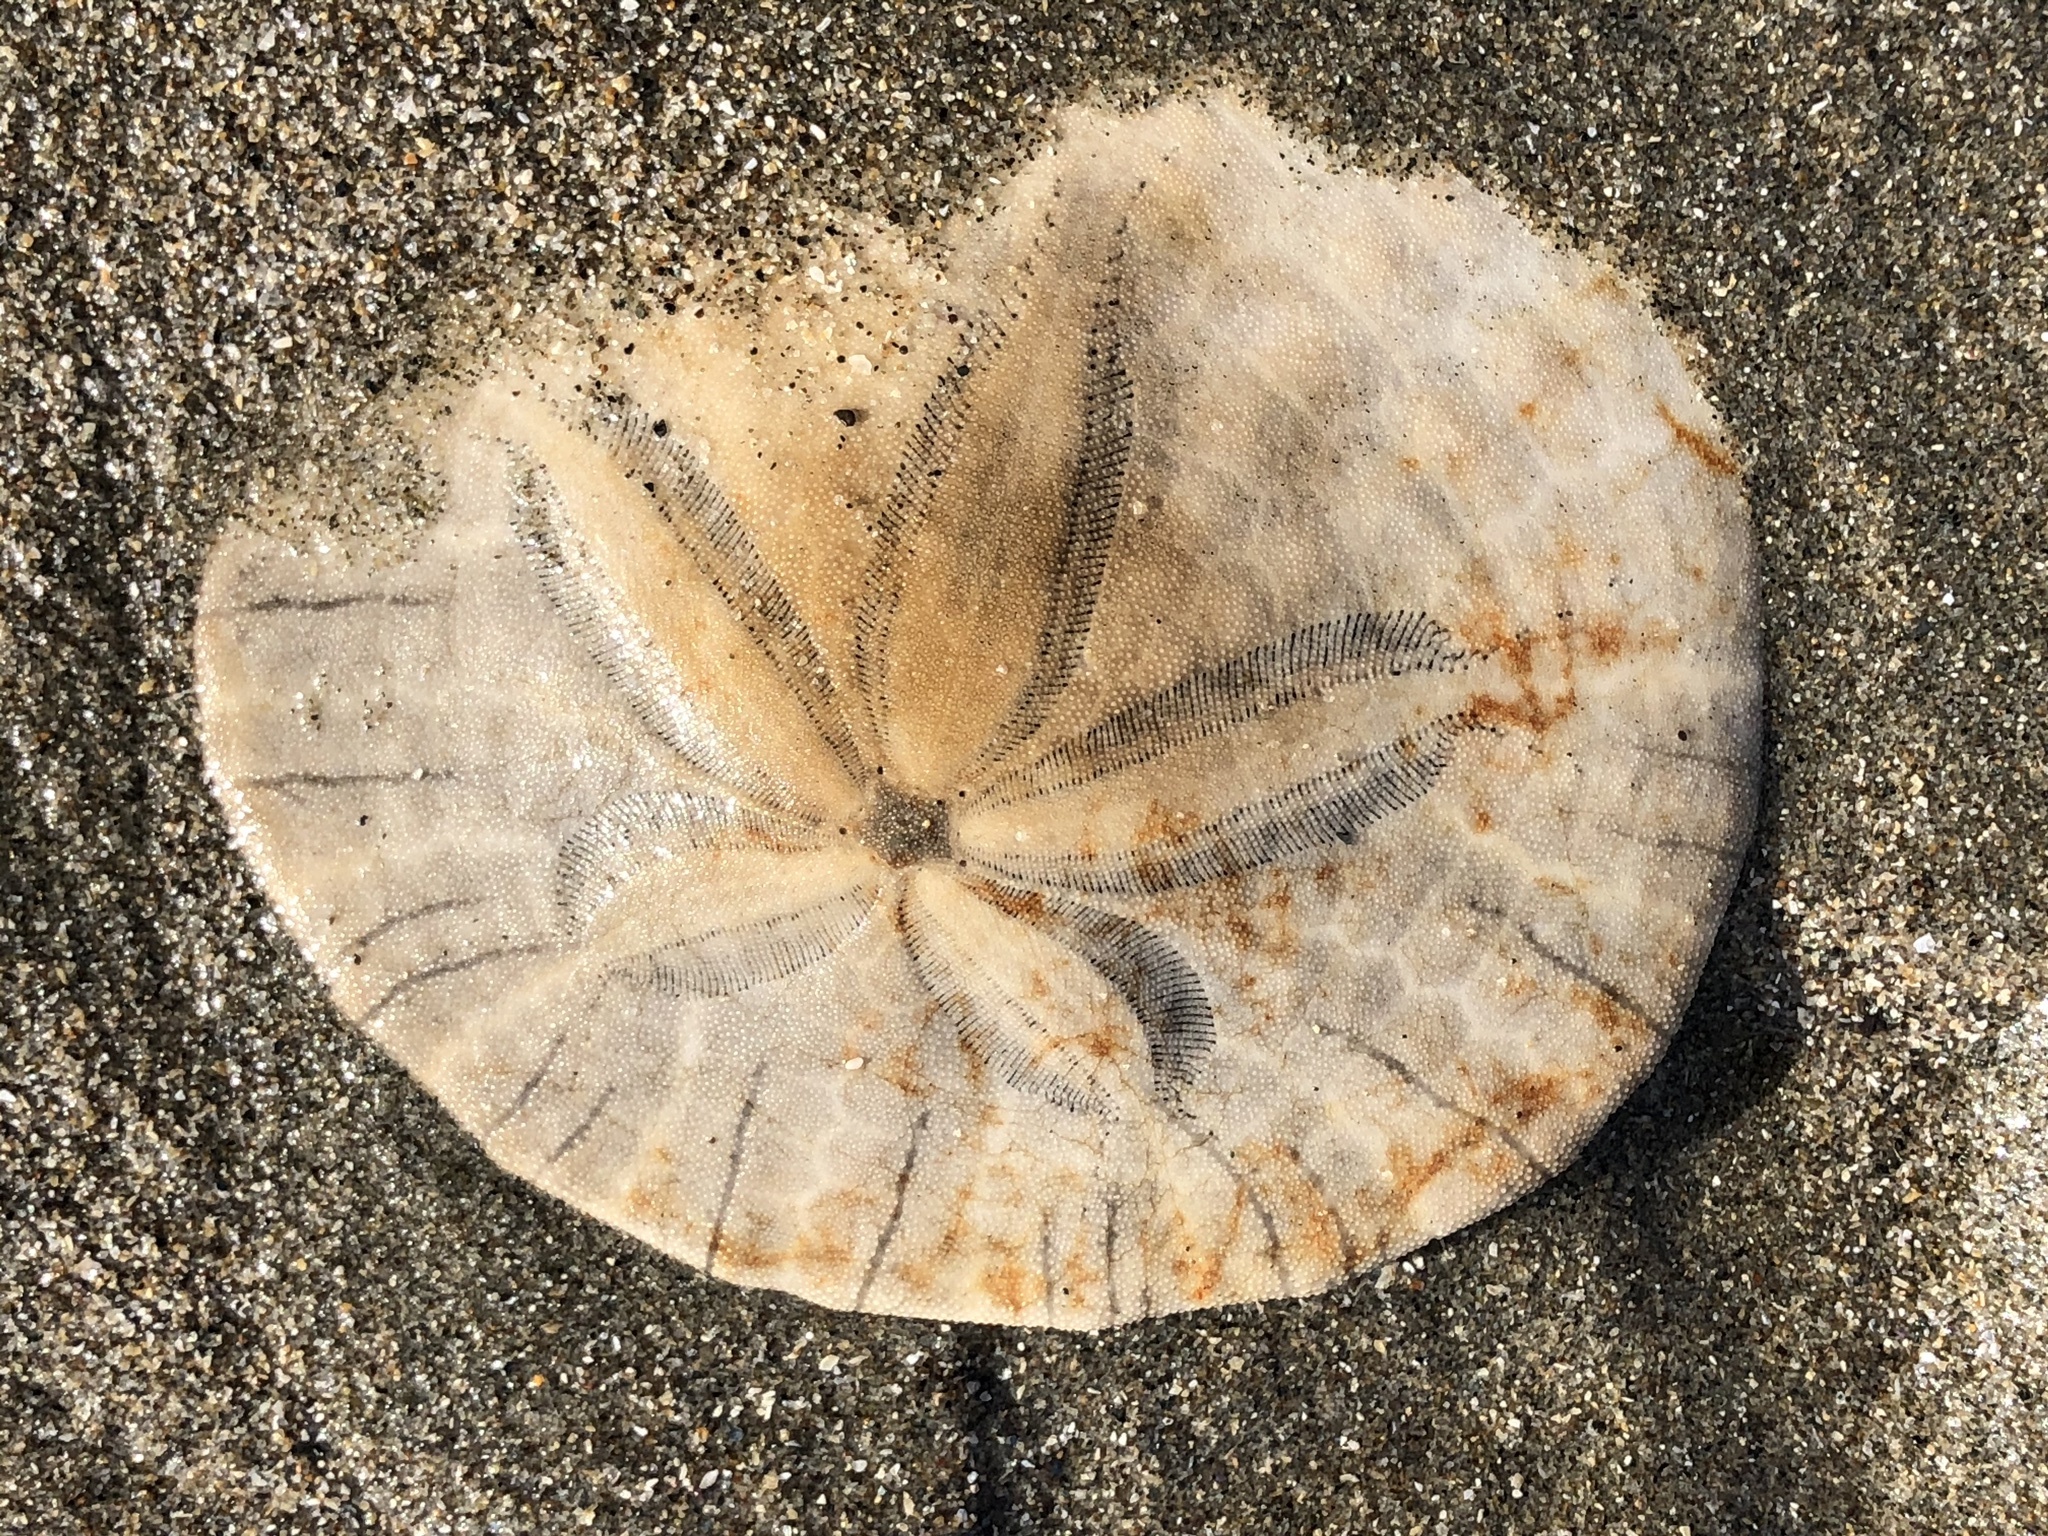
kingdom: Animalia
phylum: Echinodermata
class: Echinoidea
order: Echinolampadacea
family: Dendrasteridae
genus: Dendraster
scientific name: Dendraster excentricus
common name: Eccentric sand dollar sea urchin
